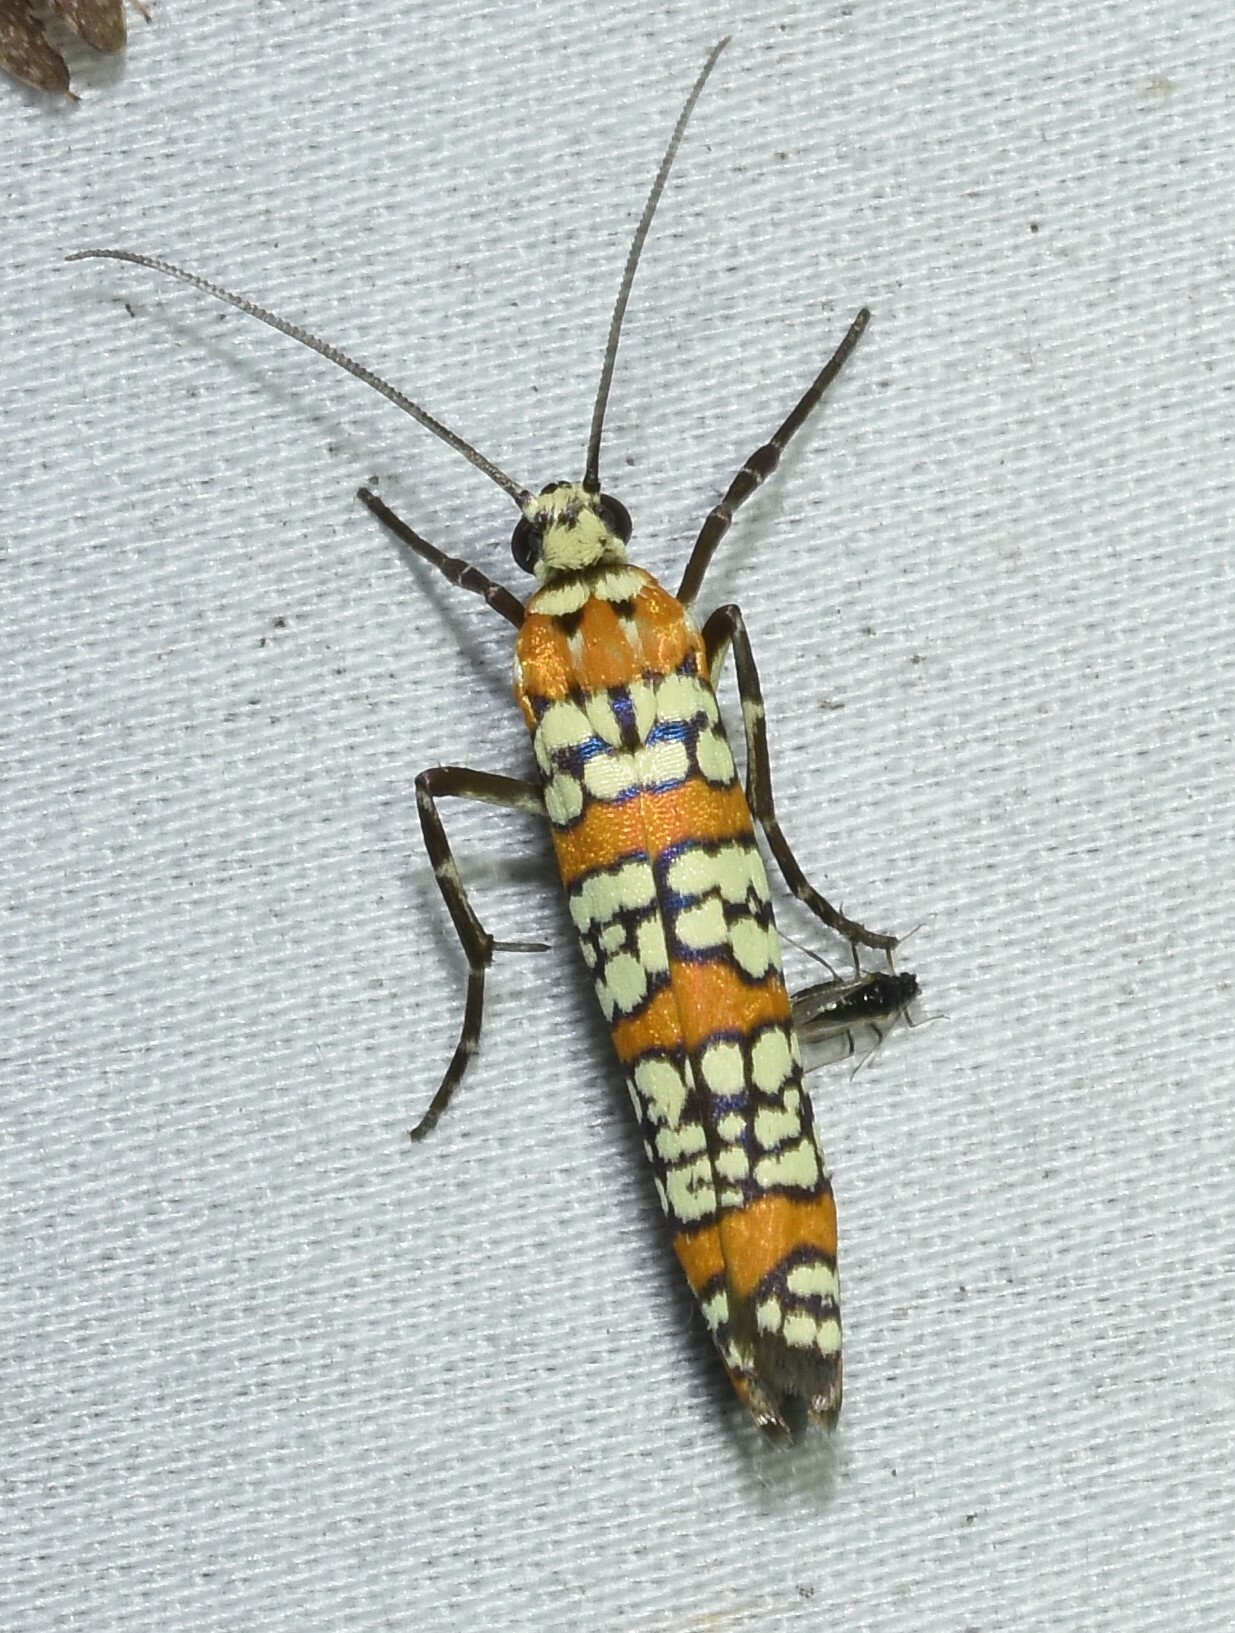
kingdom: Animalia
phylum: Arthropoda
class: Insecta
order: Lepidoptera
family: Attevidae
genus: Atteva
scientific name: Atteva punctella
